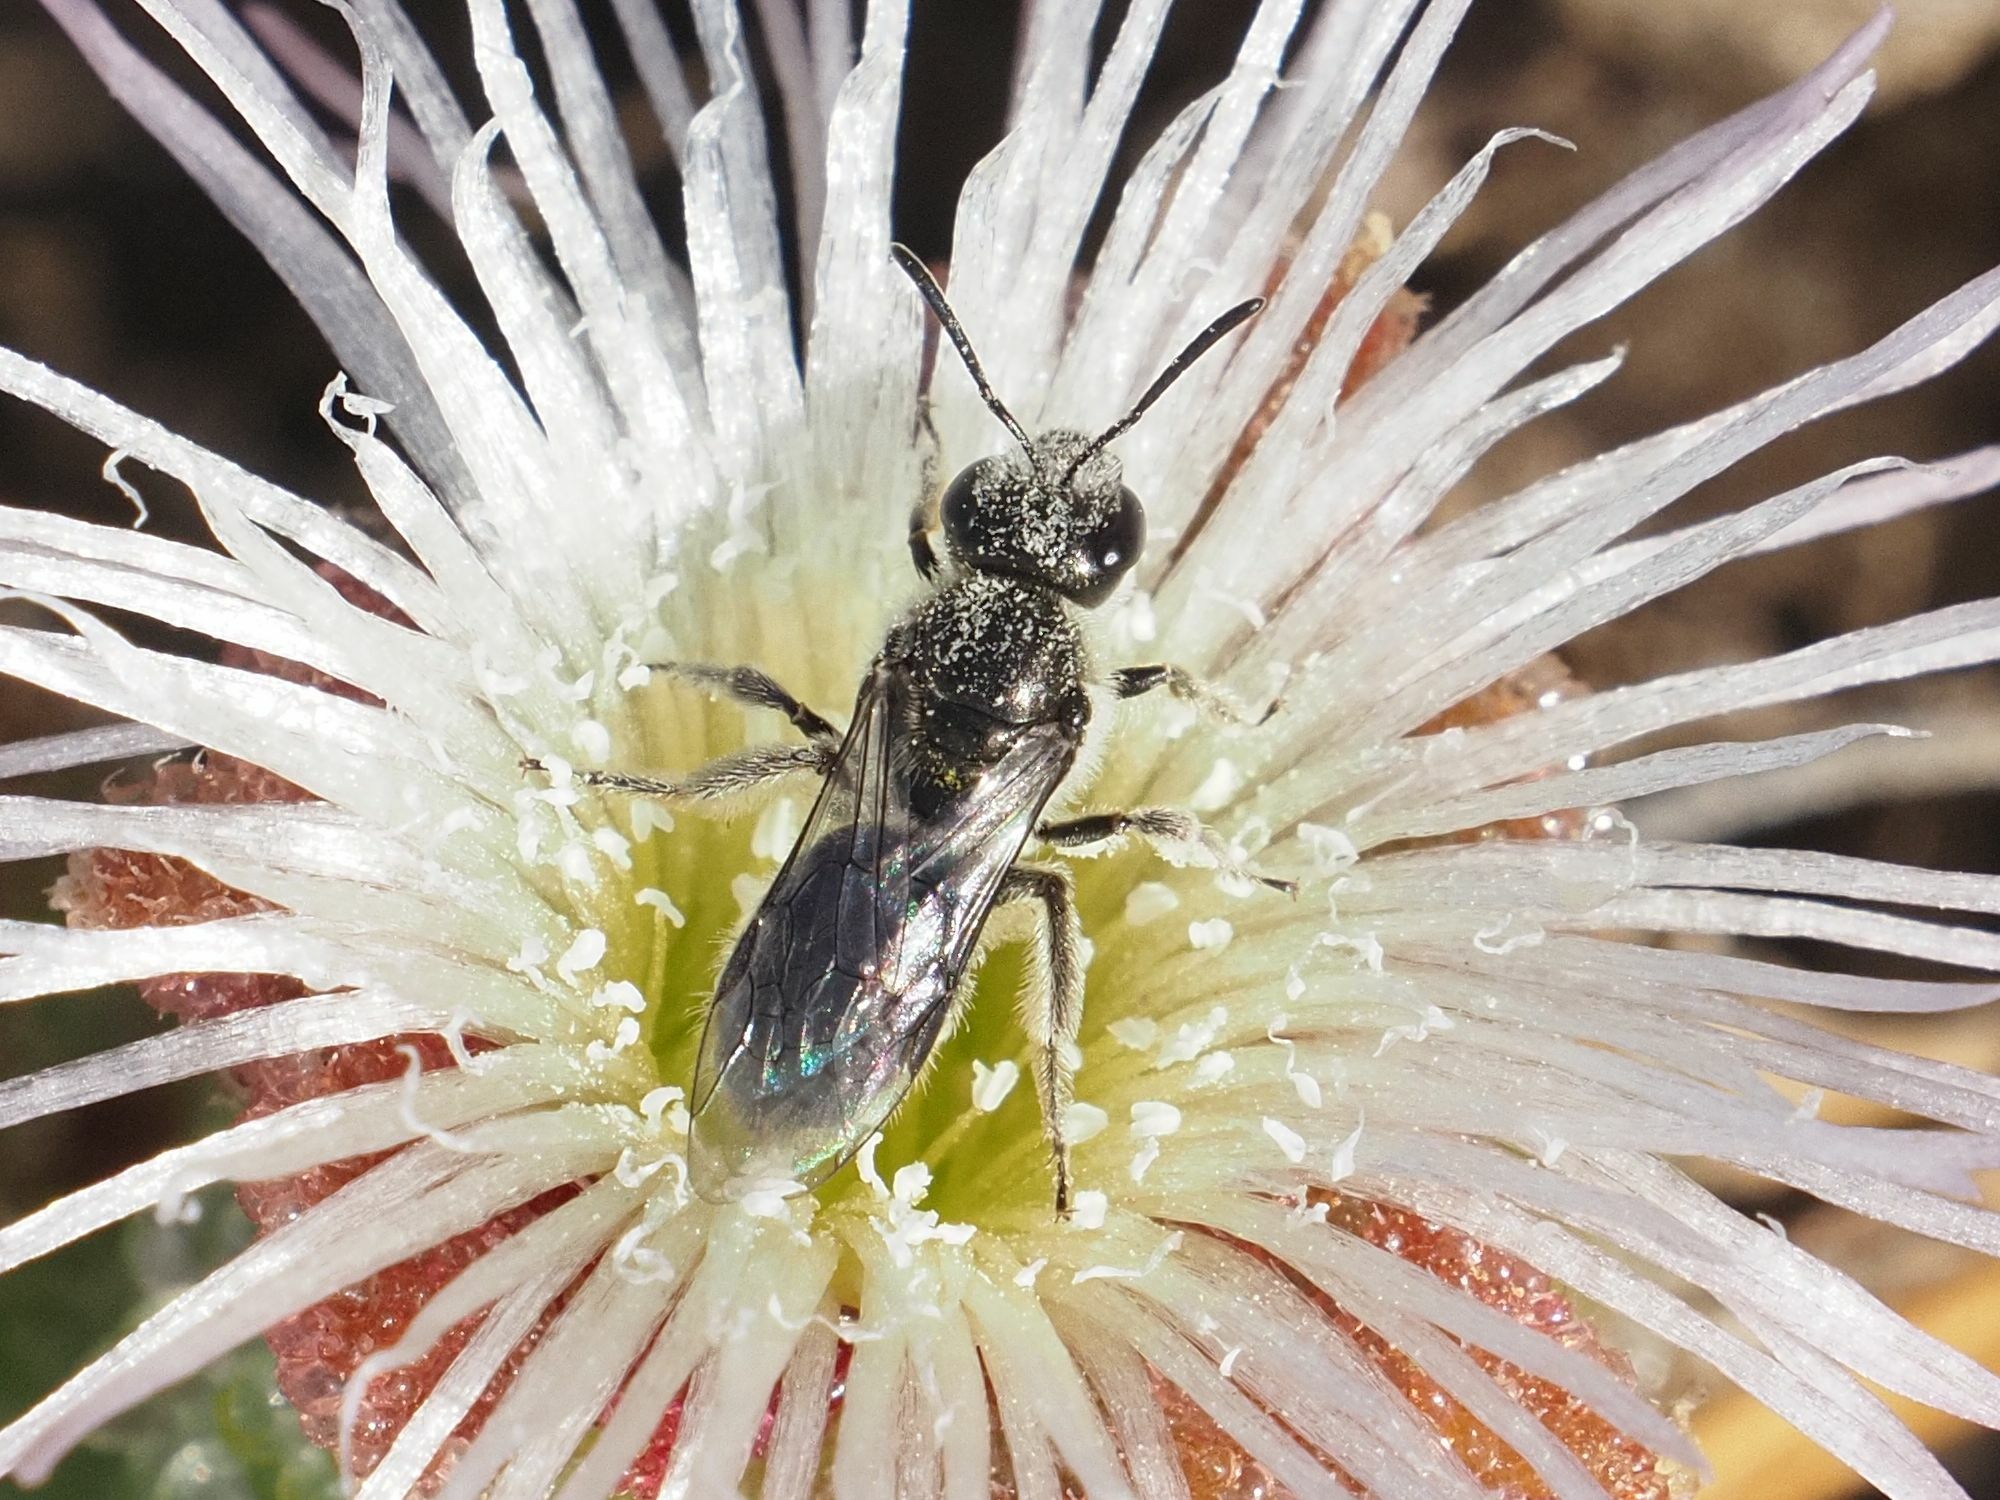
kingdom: Animalia
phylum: Arthropoda
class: Insecta
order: Hymenoptera
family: Halictidae
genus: Lasioglossum
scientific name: Lasioglossum viride
